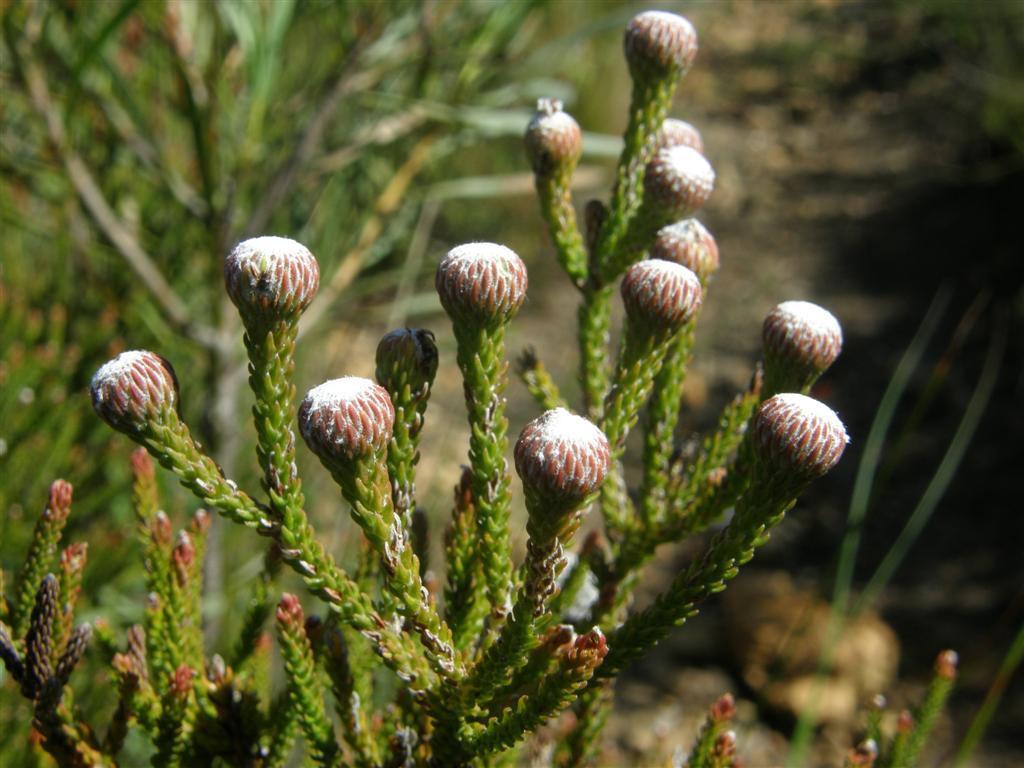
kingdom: Plantae
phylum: Tracheophyta
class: Magnoliopsida
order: Bruniales
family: Bruniaceae
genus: Brunia
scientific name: Brunia noduliflora
